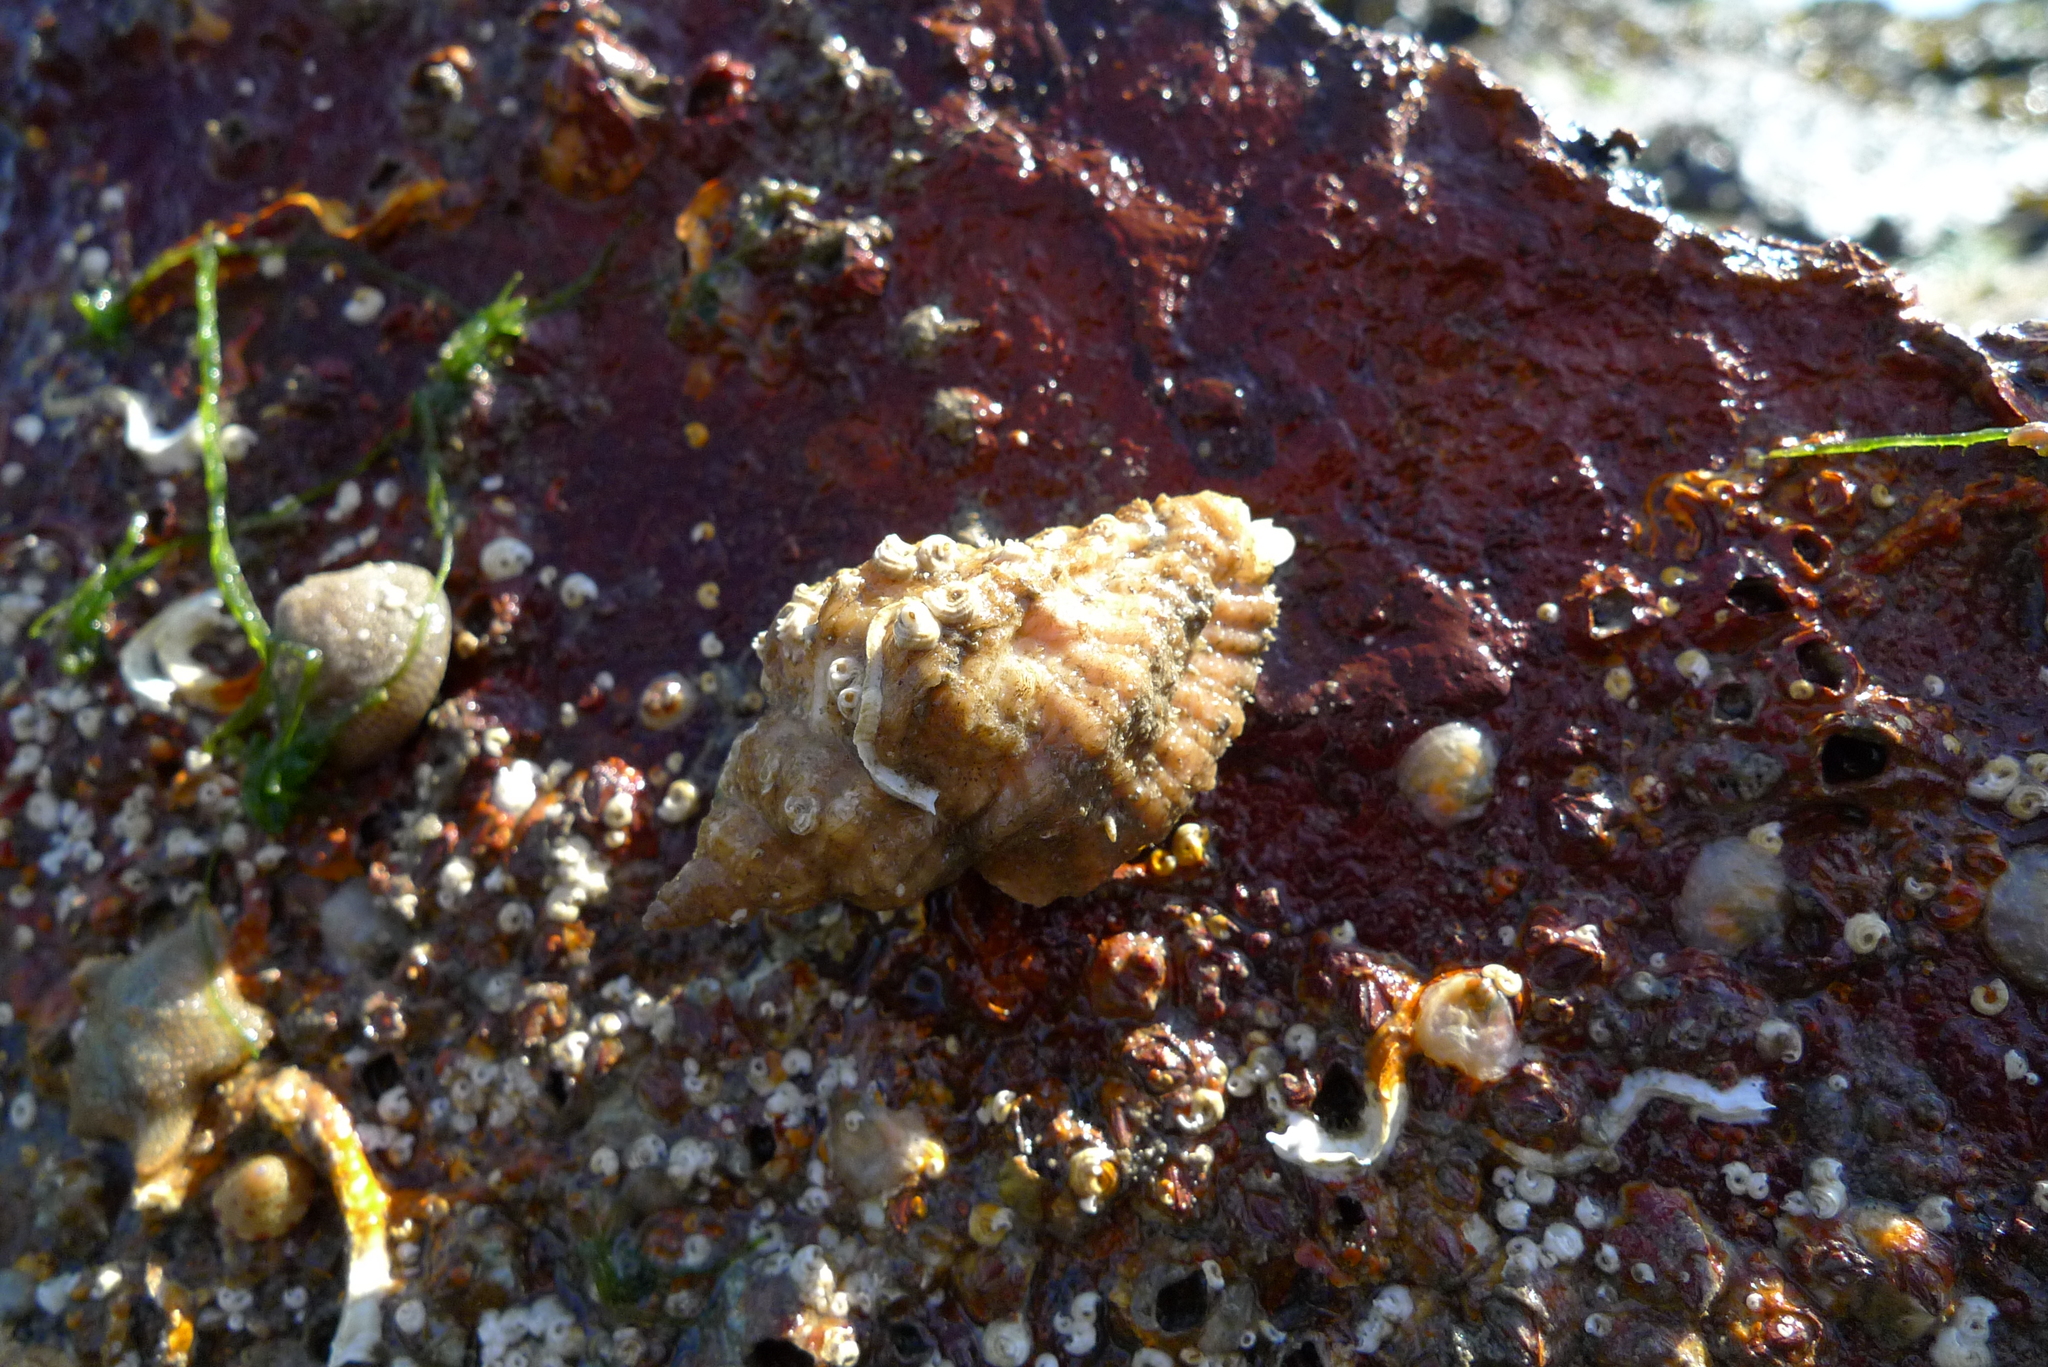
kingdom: Animalia
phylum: Mollusca
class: Gastropoda
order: Neogastropoda
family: Muricidae
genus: Ocenebra
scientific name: Ocenebra erinaceus
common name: European sting winkle
